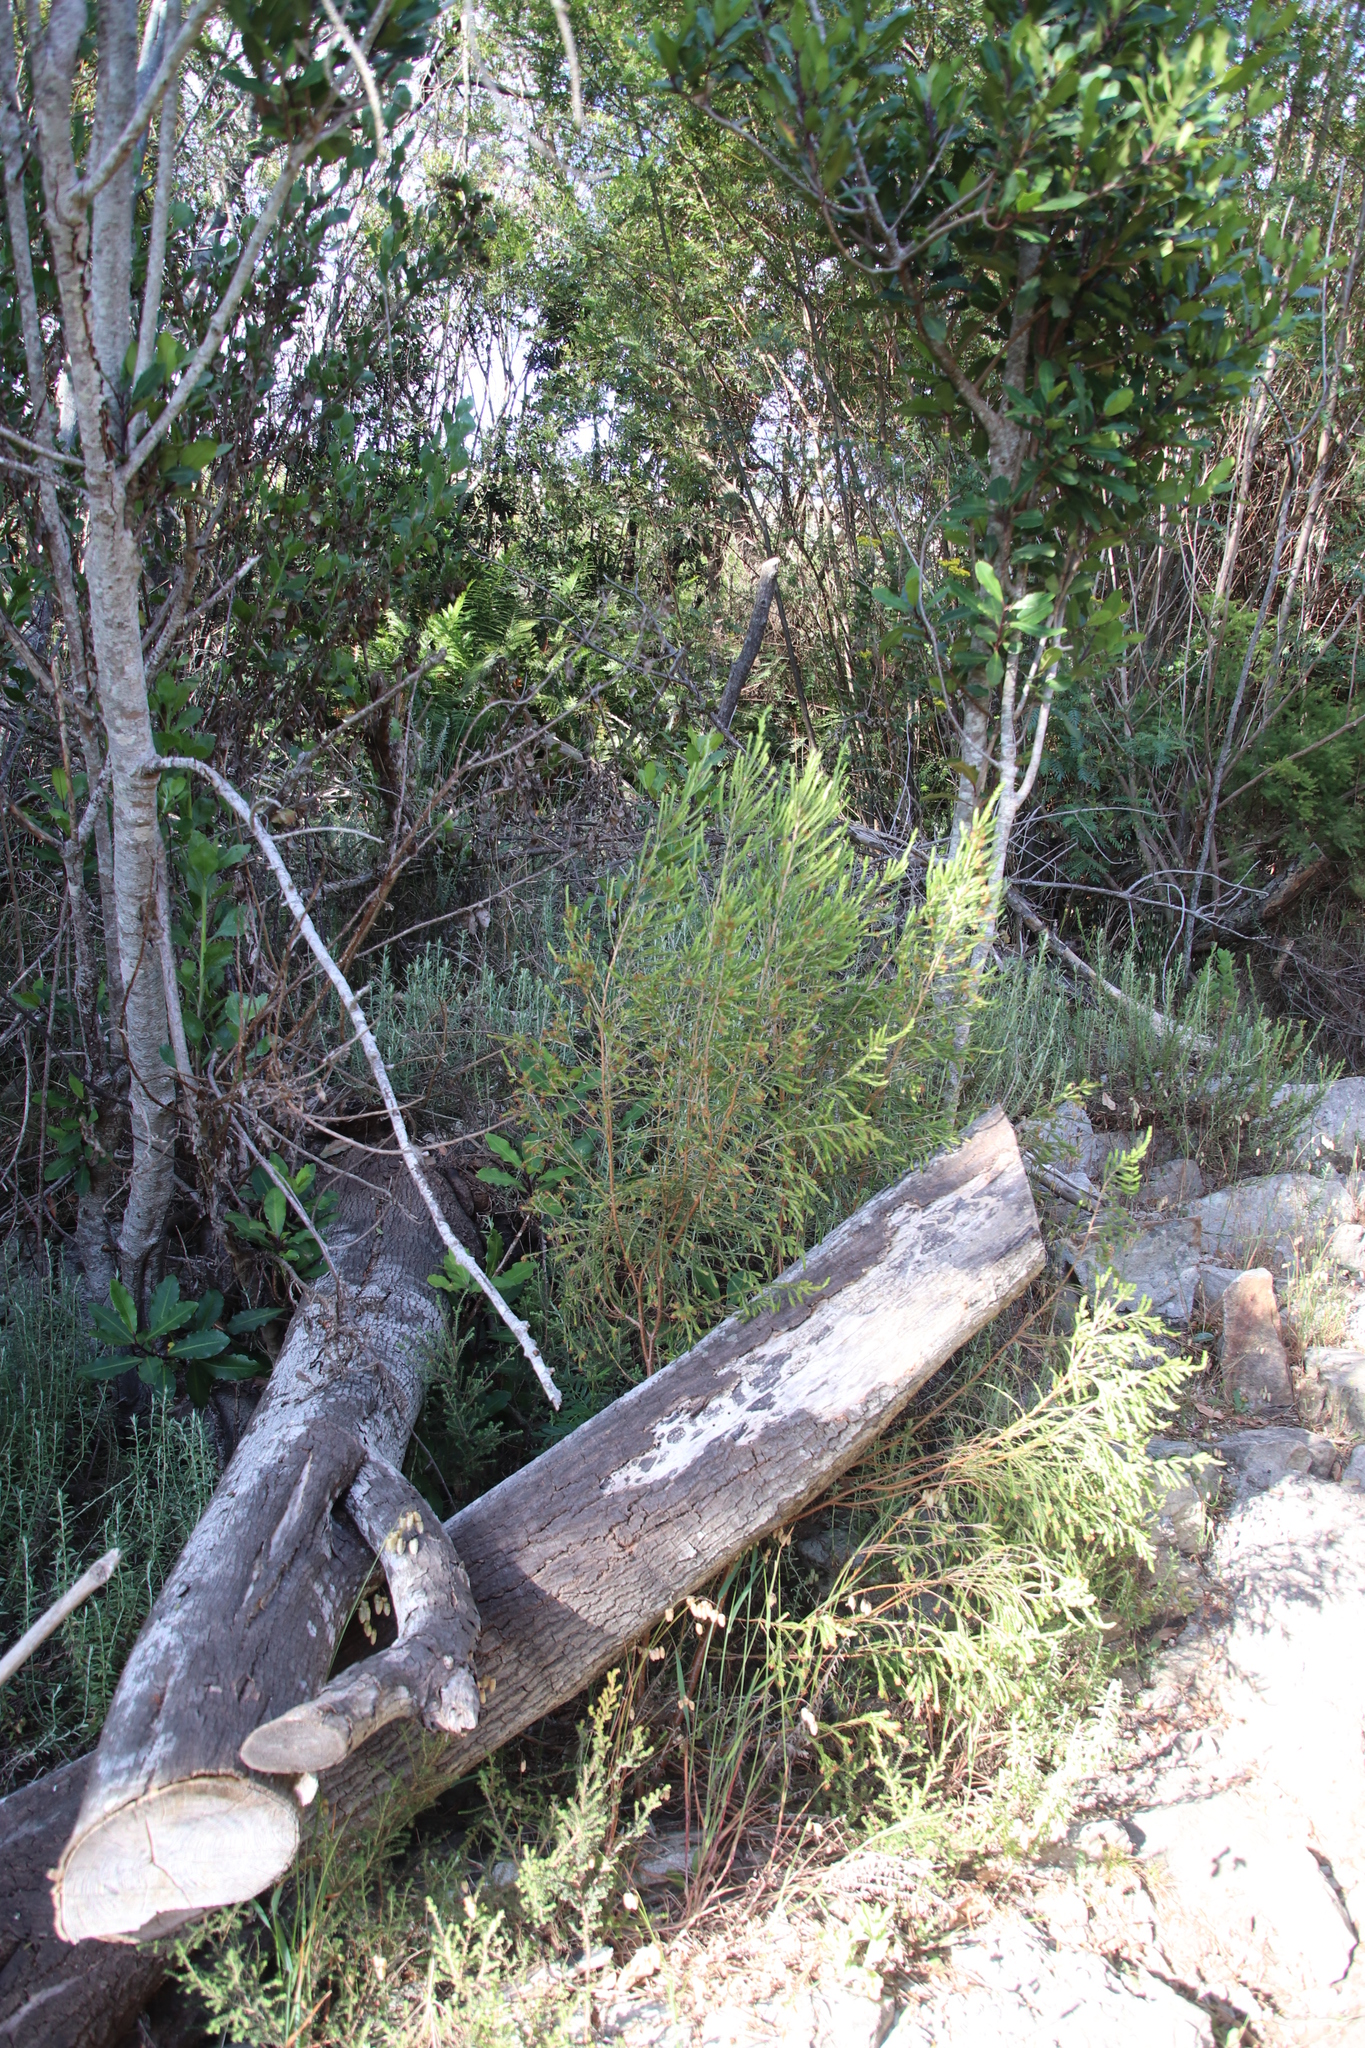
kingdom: Plantae
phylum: Tracheophyta
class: Magnoliopsida
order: Malvales
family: Thymelaeaceae
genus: Passerina
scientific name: Passerina corymbosa
